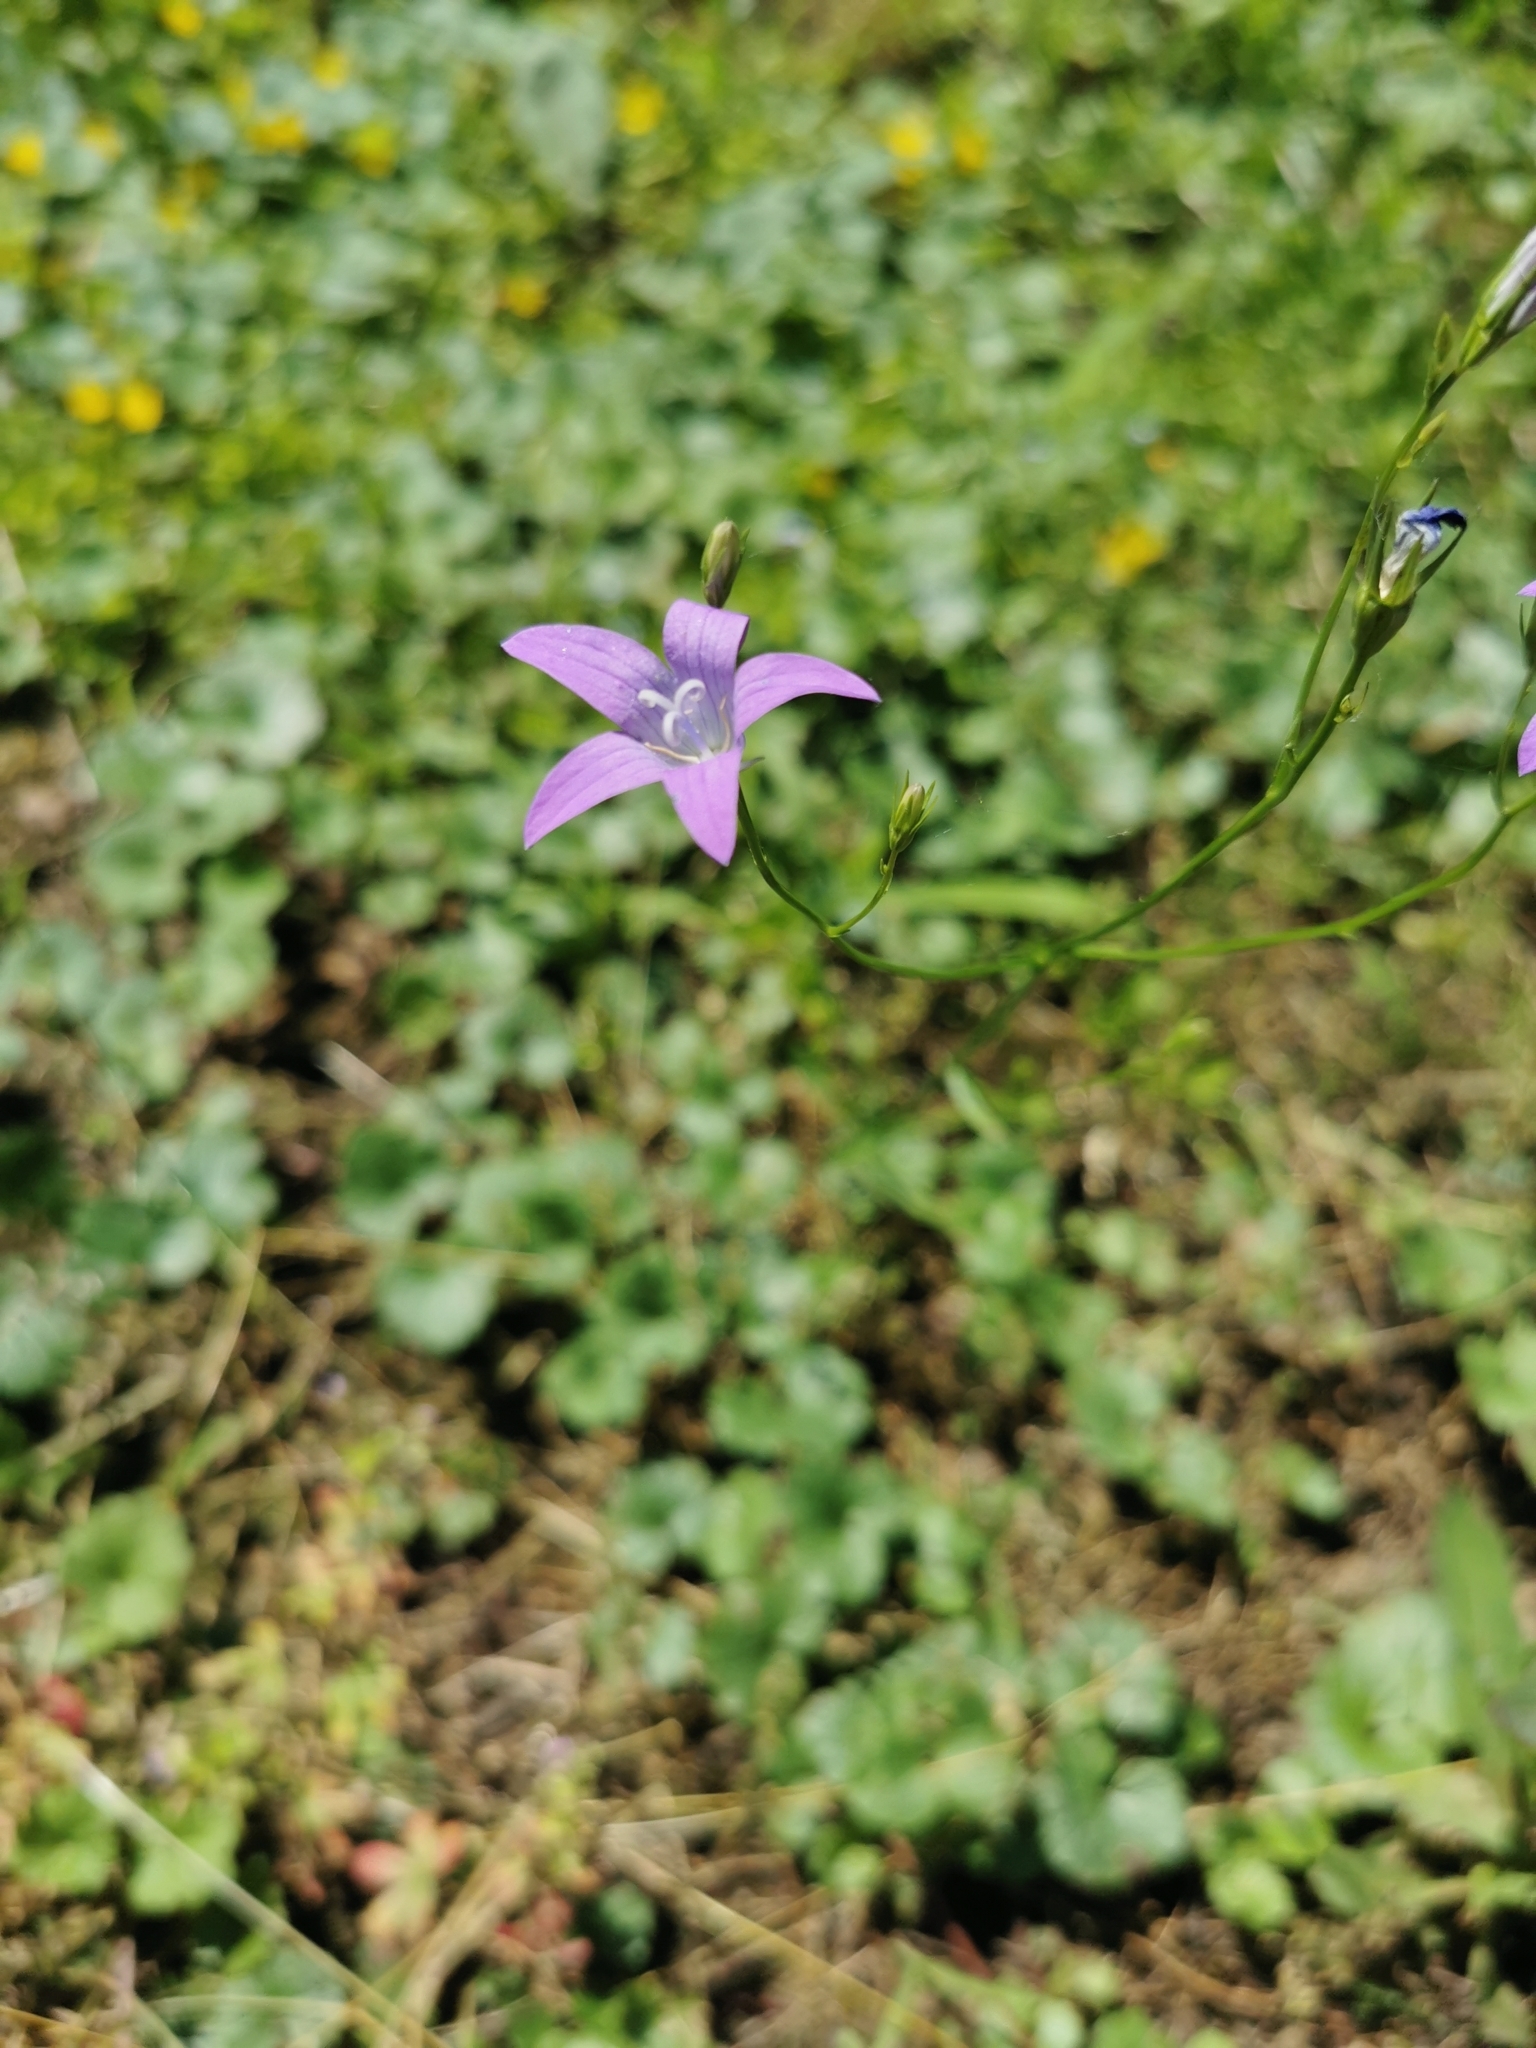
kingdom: Plantae
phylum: Tracheophyta
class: Magnoliopsida
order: Asterales
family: Campanulaceae
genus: Campanula
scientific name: Campanula patula
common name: Spreading bellflower
